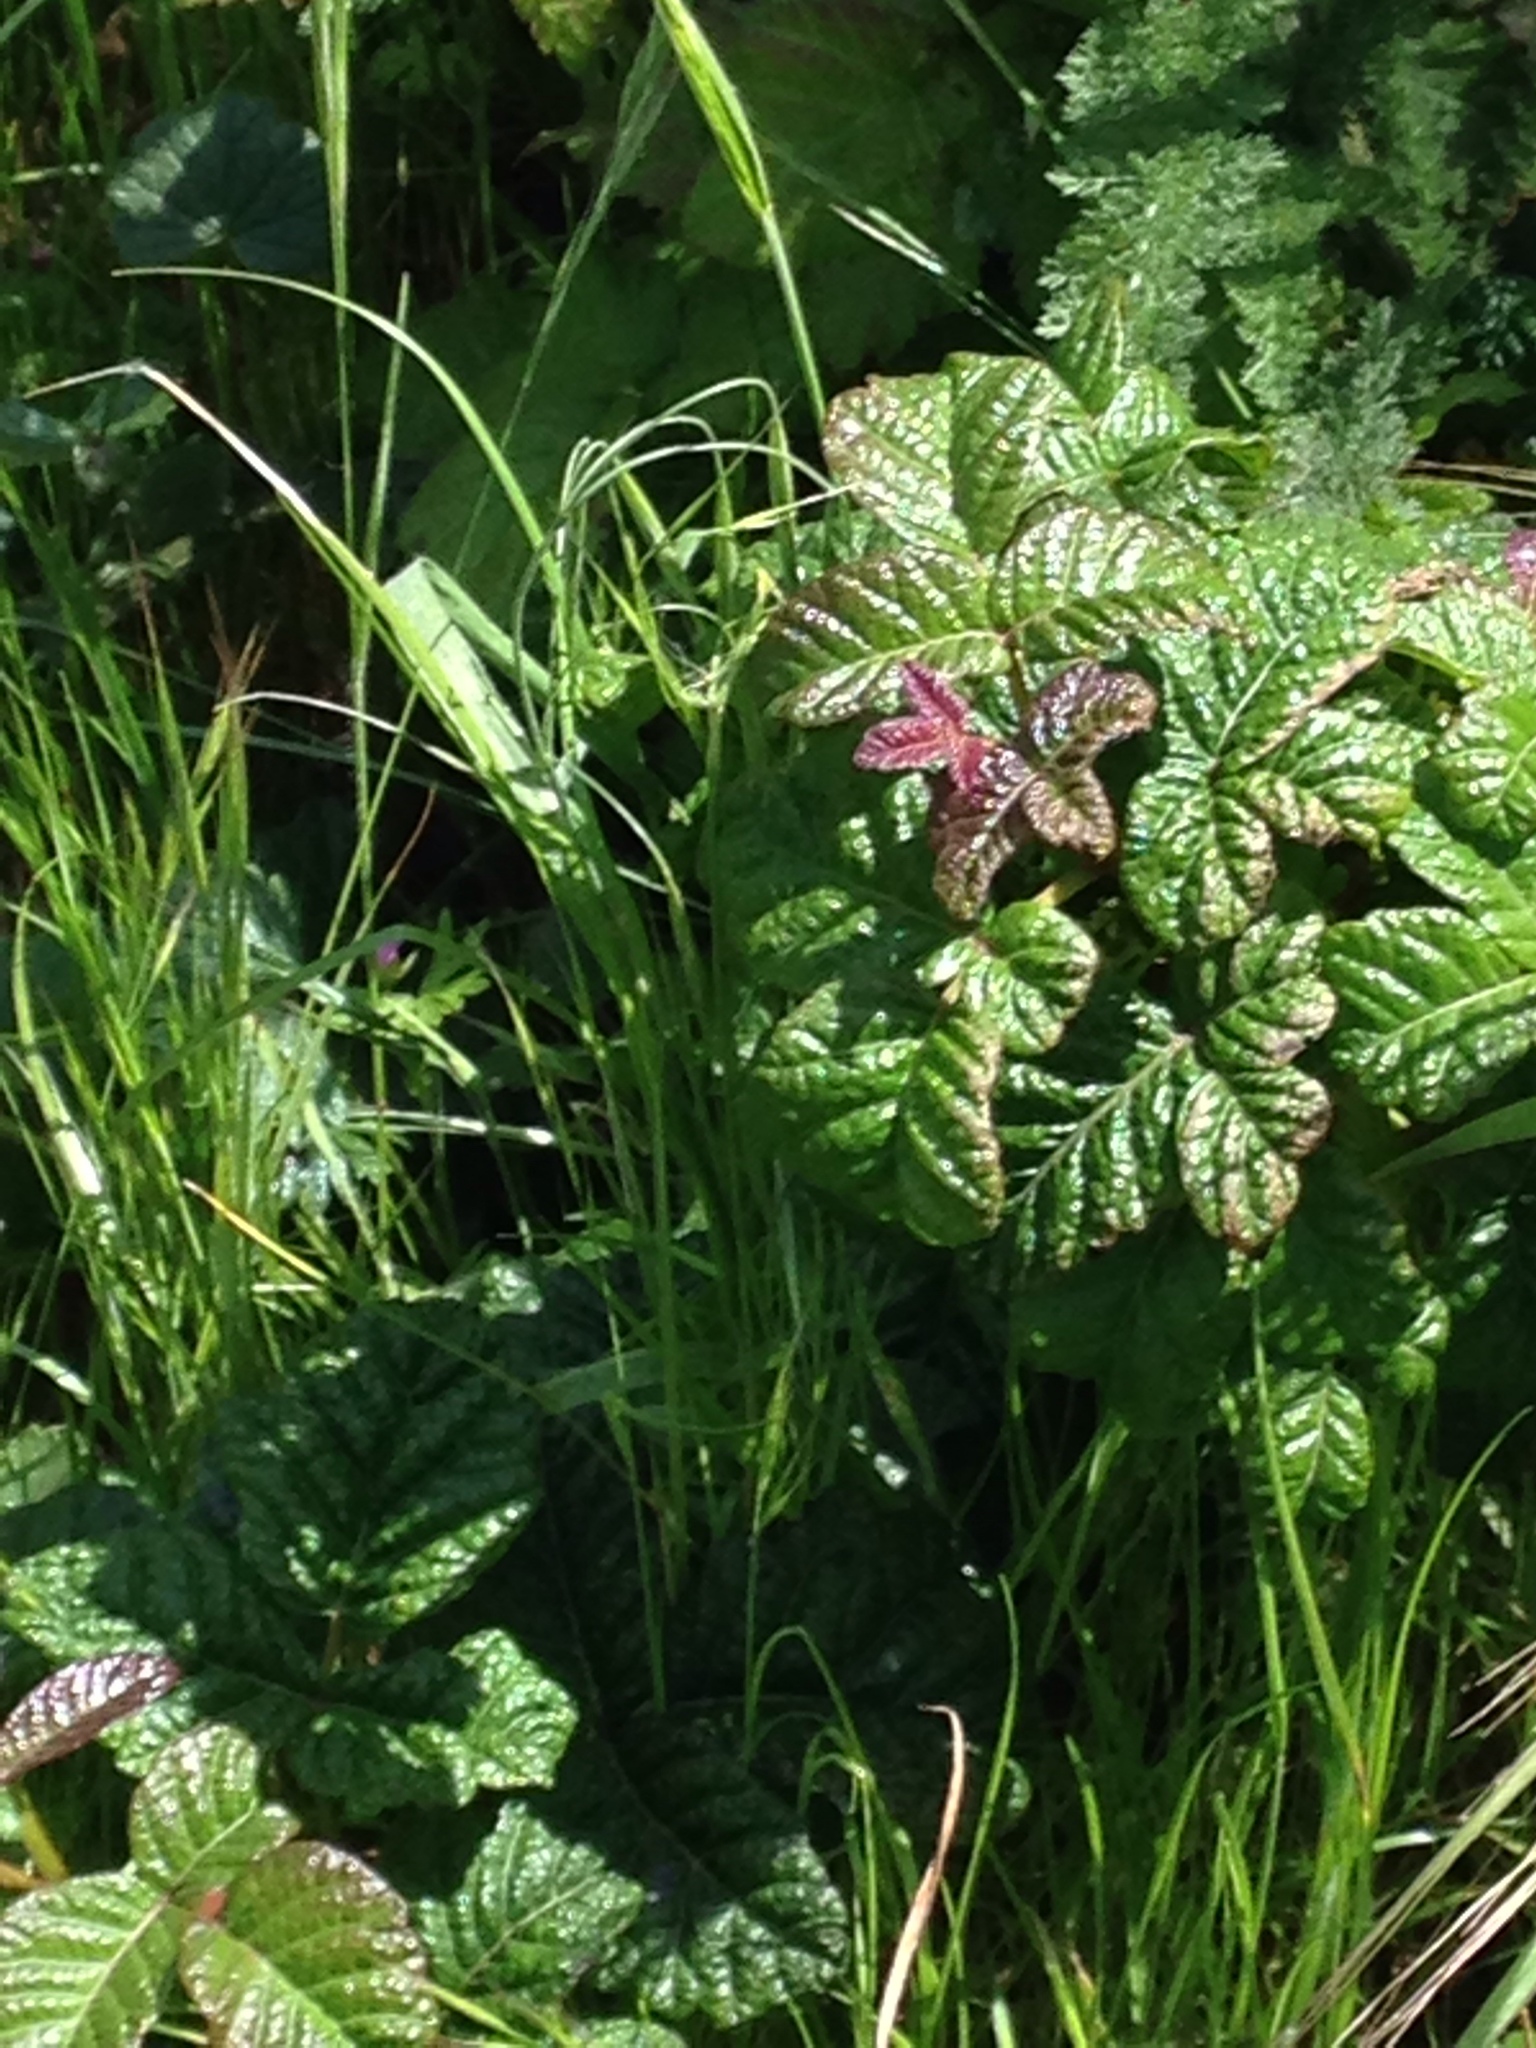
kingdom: Plantae
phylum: Tracheophyta
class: Magnoliopsida
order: Sapindales
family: Anacardiaceae
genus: Toxicodendron
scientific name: Toxicodendron diversilobum
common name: Pacific poison-oak
